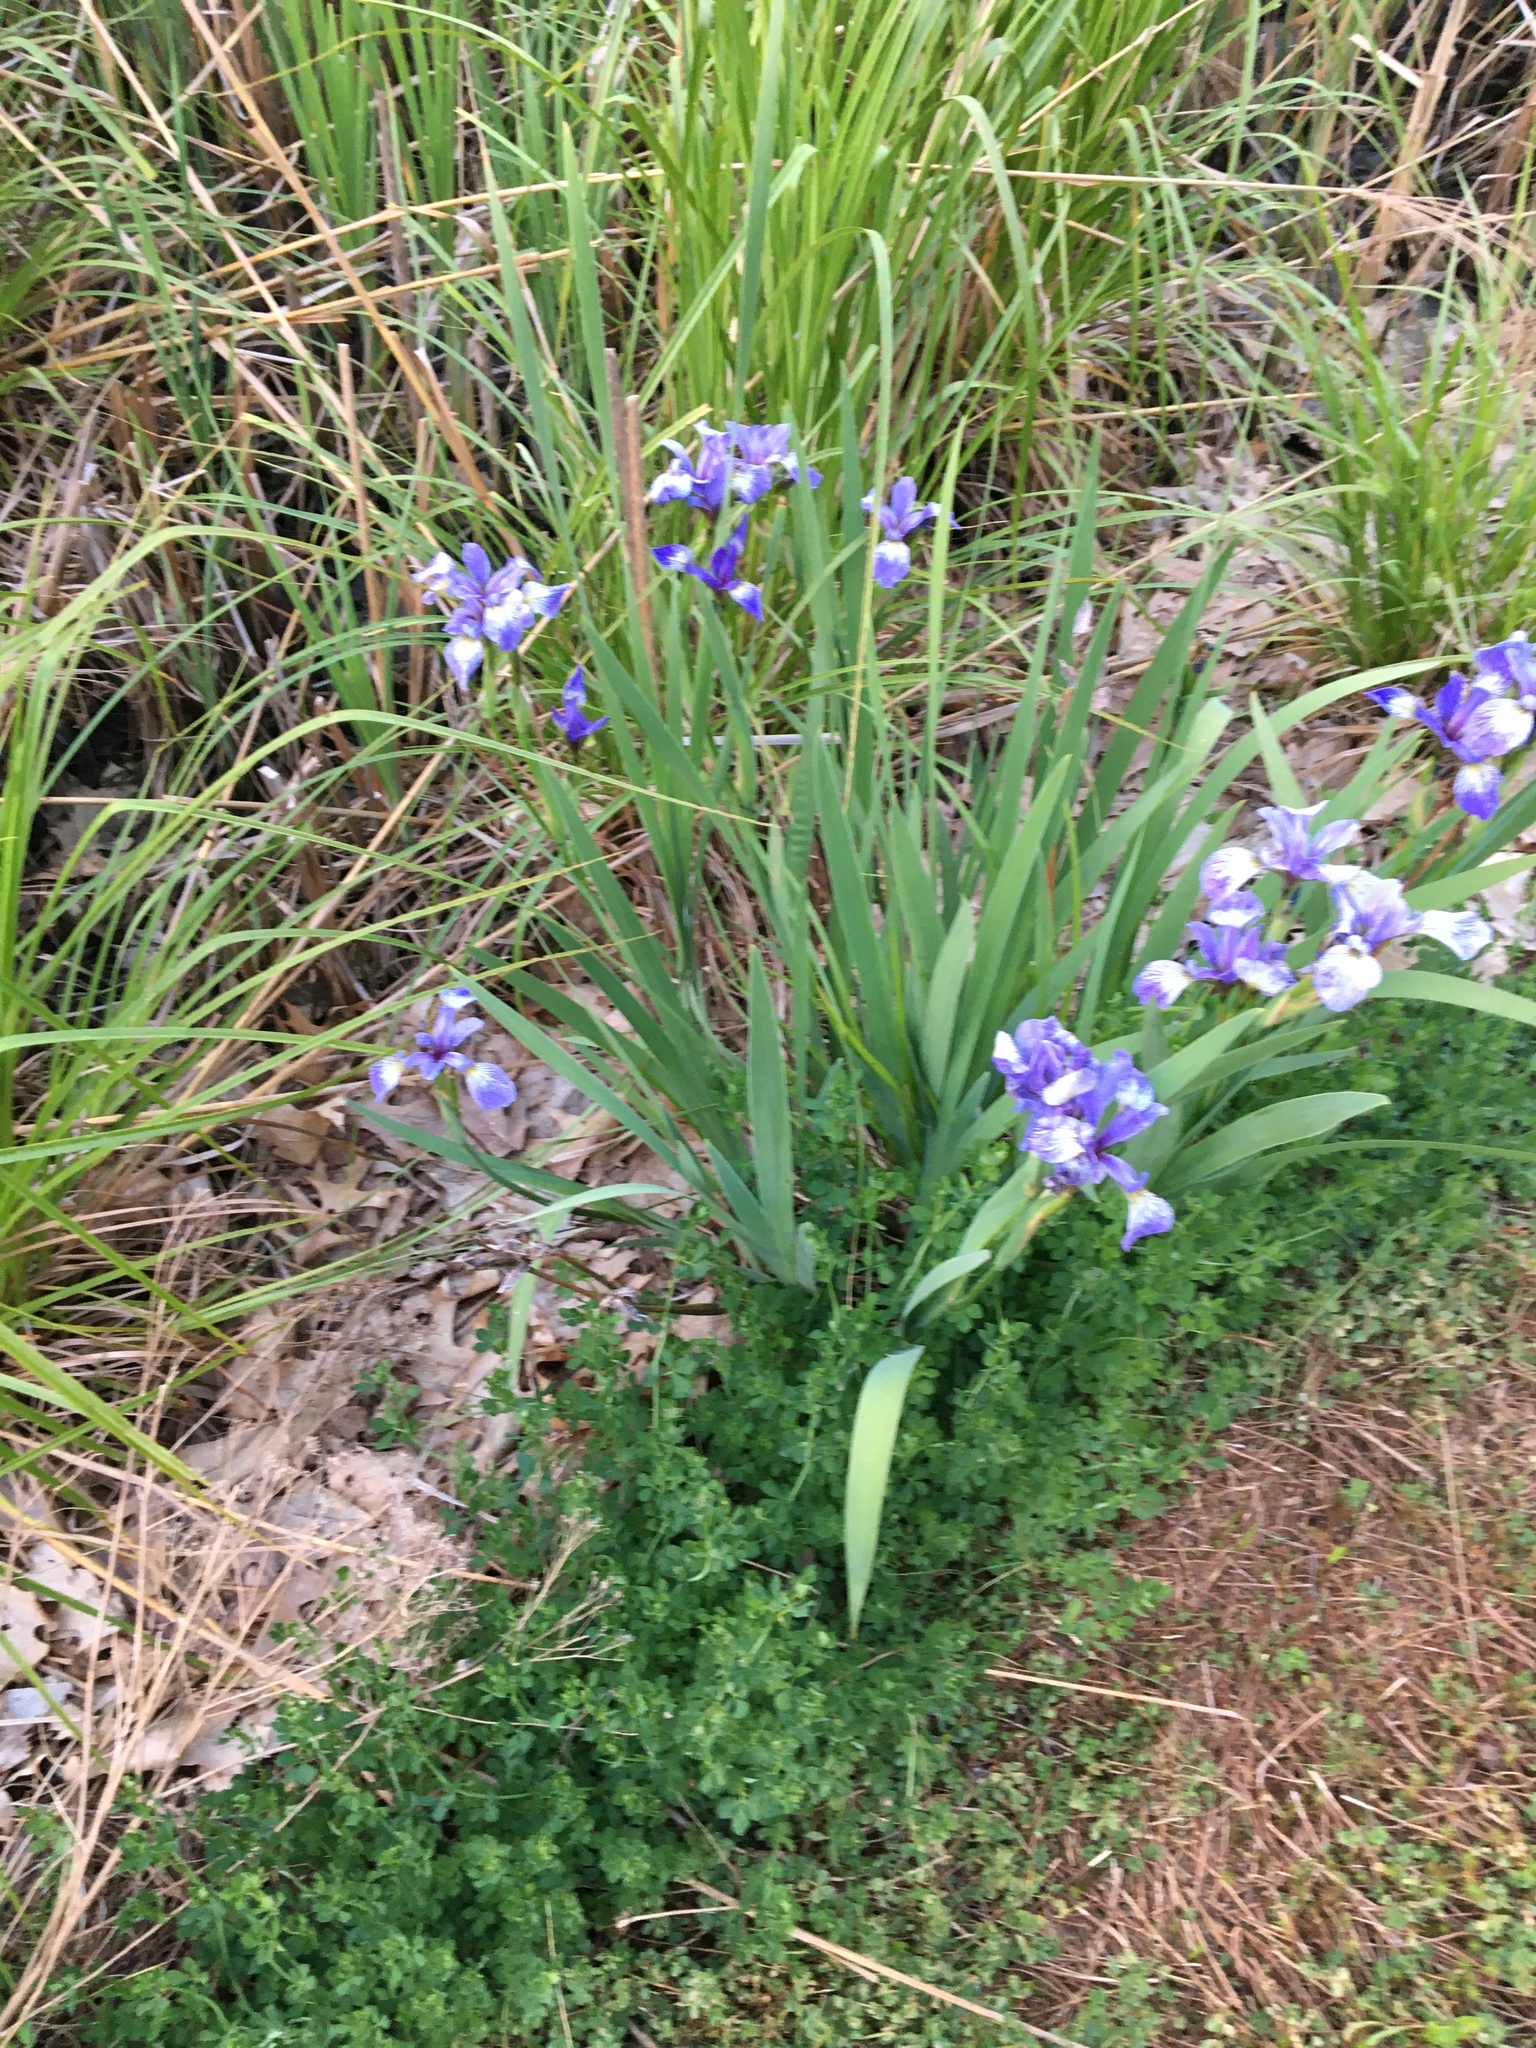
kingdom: Plantae
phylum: Tracheophyta
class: Liliopsida
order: Asparagales
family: Iridaceae
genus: Iris
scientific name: Iris versicolor
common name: Purple iris
